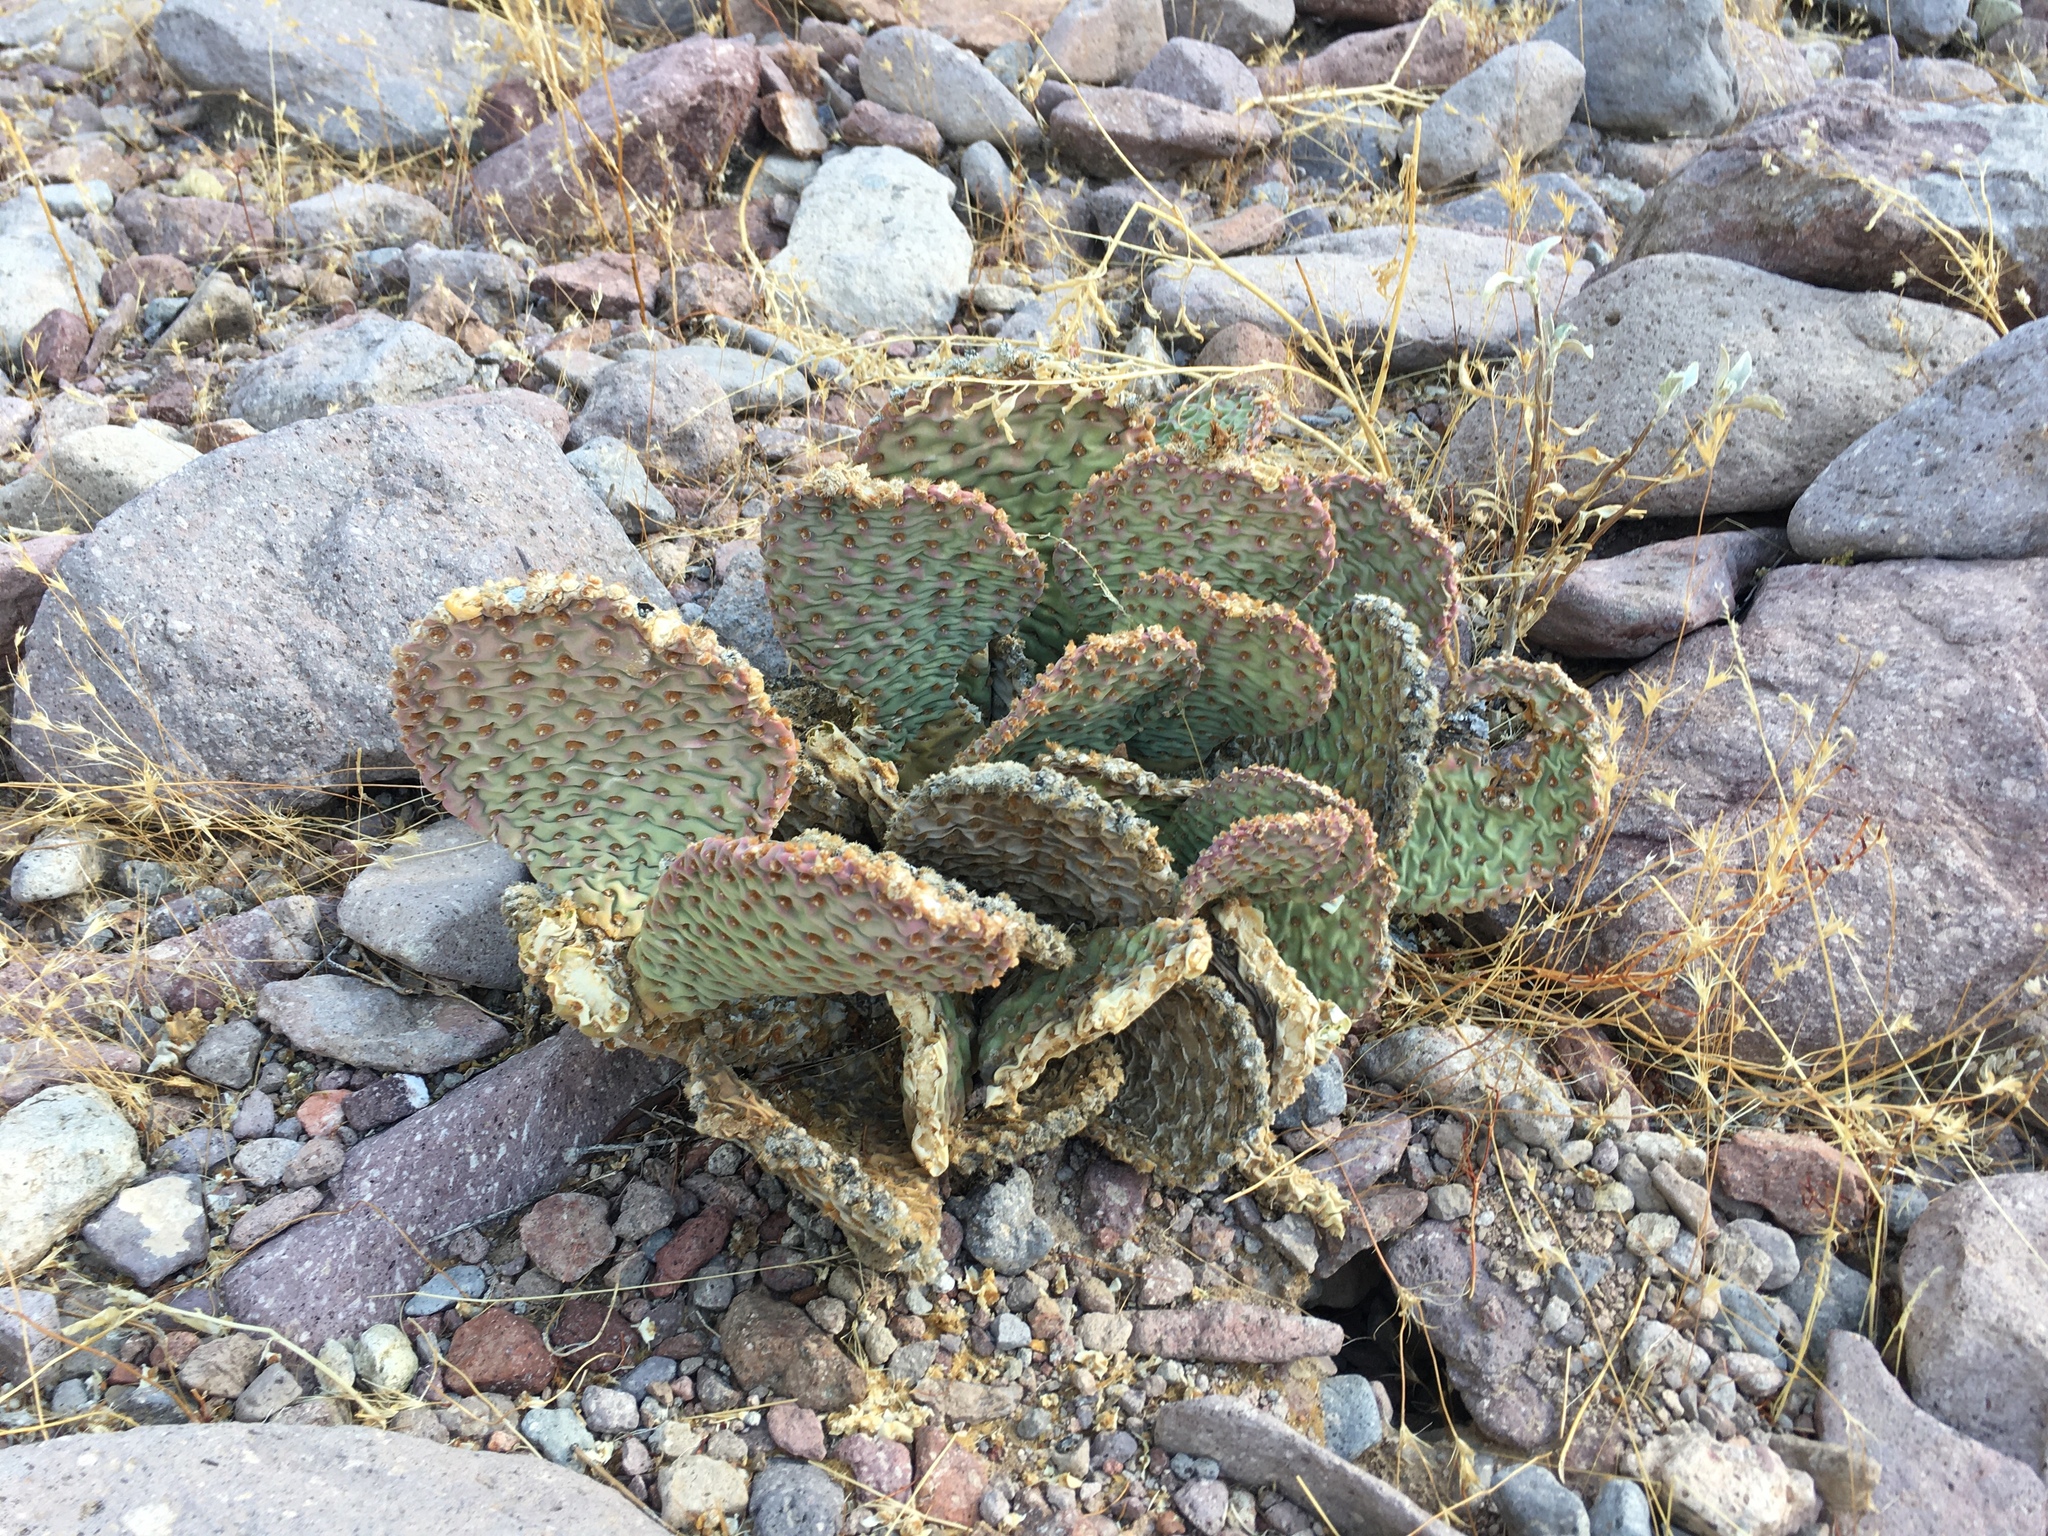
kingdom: Plantae
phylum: Tracheophyta
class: Magnoliopsida
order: Caryophyllales
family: Cactaceae
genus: Opuntia
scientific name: Opuntia basilaris
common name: Beavertail prickly-pear
